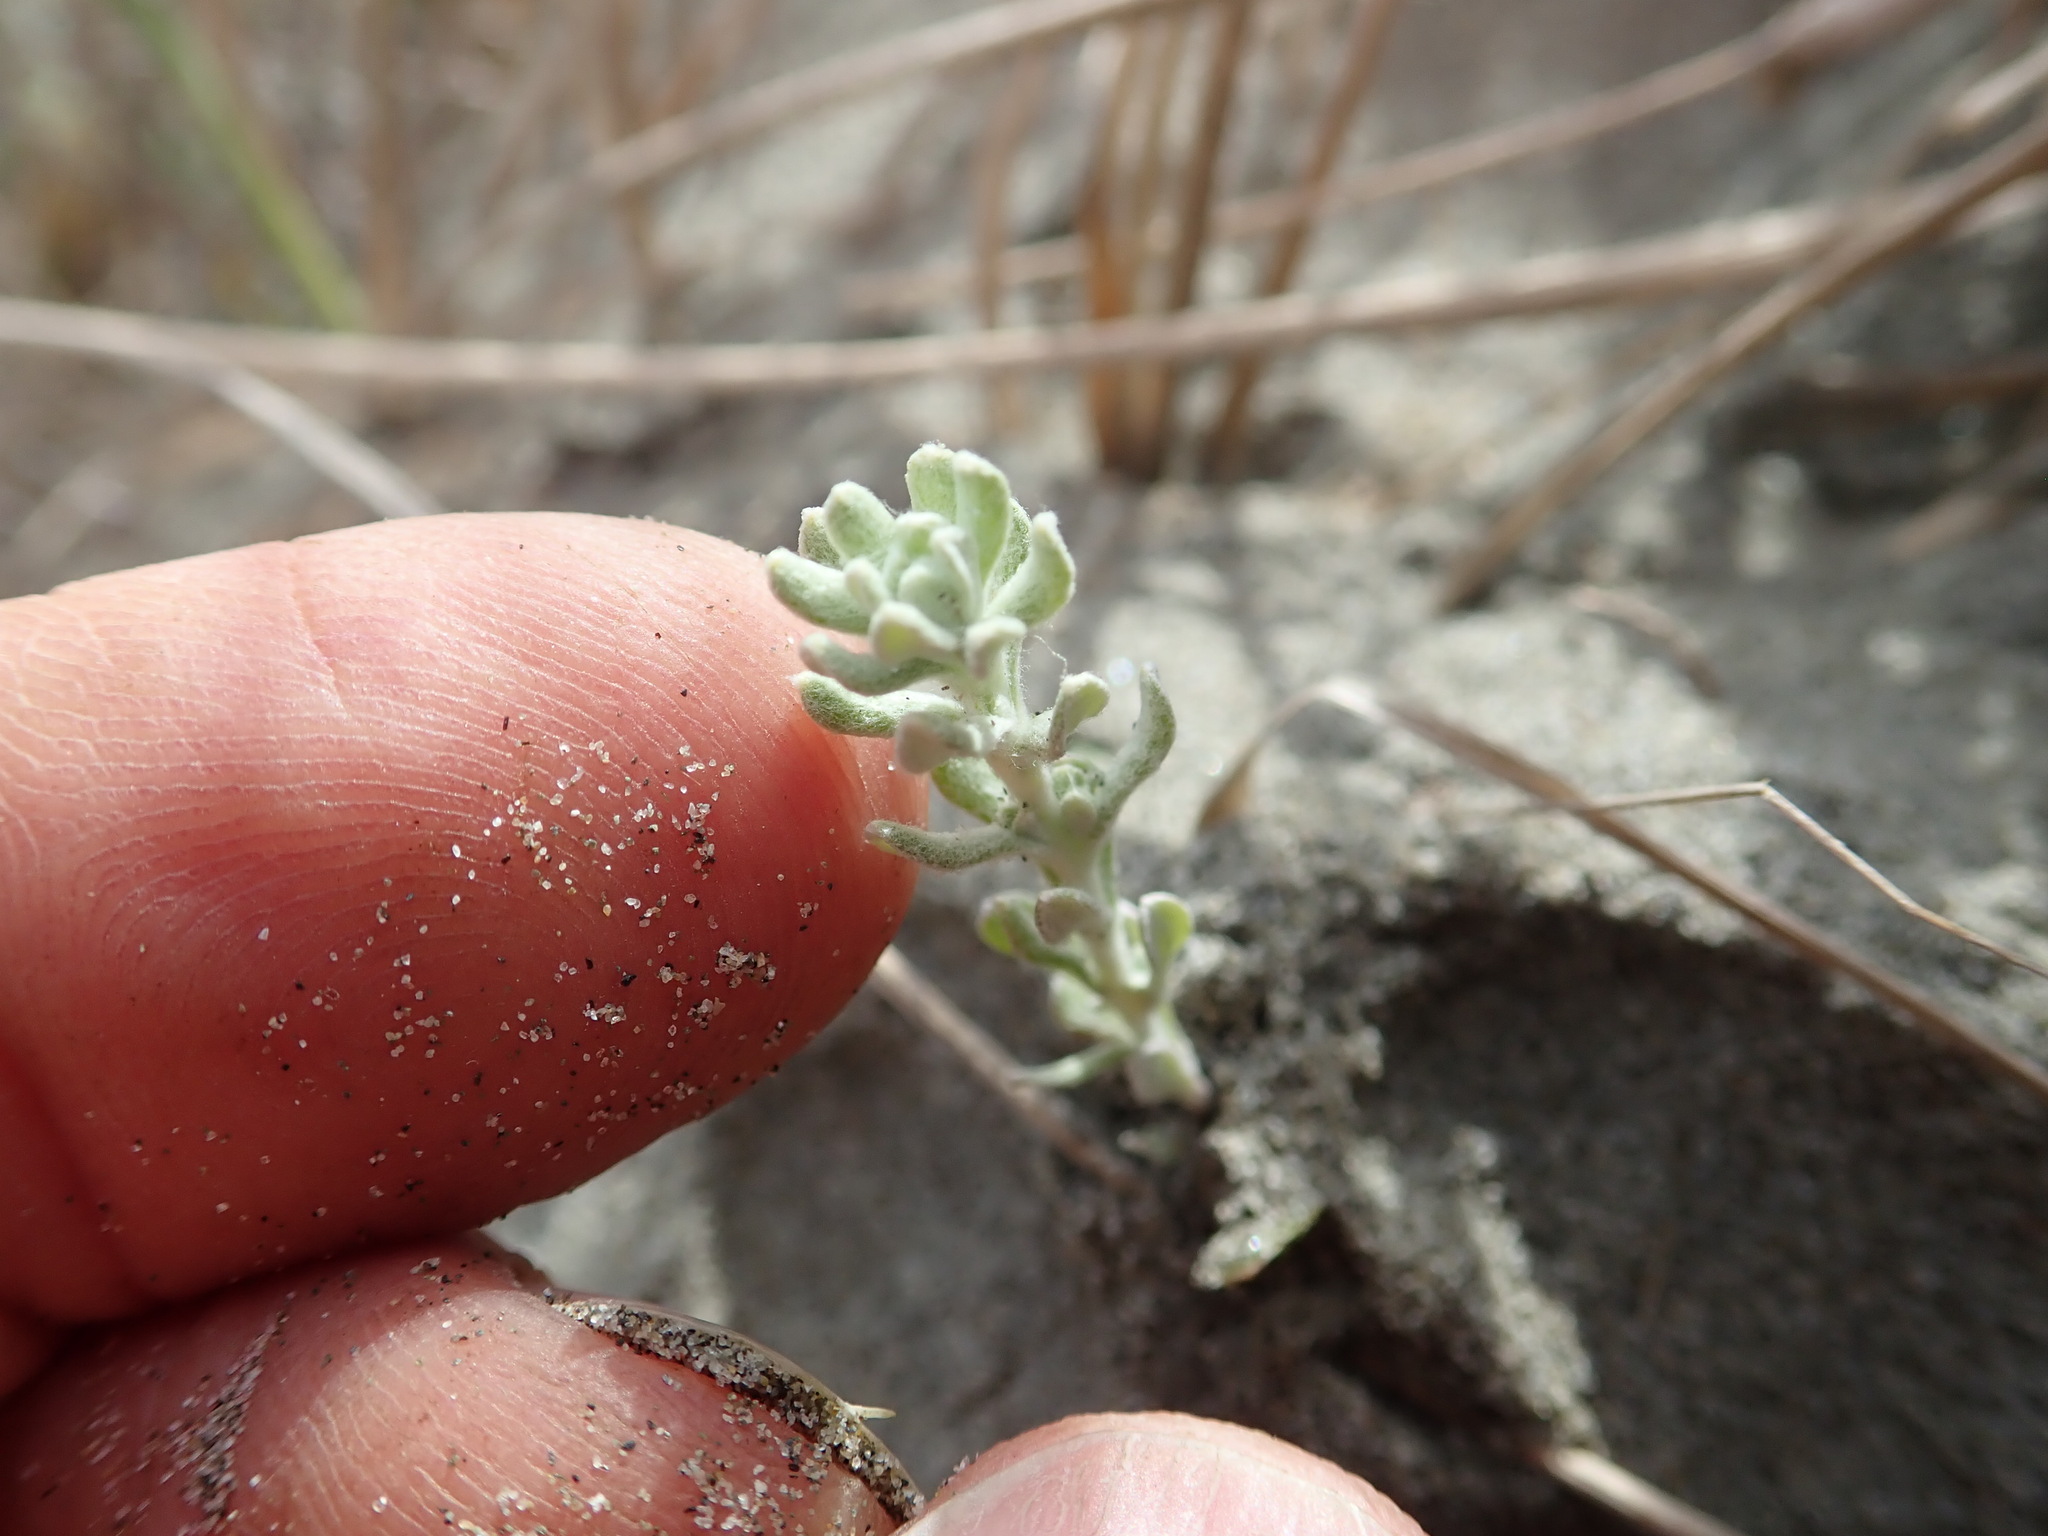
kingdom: Plantae
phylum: Tracheophyta
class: Magnoliopsida
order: Asterales
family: Asteraceae
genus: Ozothamnus
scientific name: Ozothamnus leptophyllus
